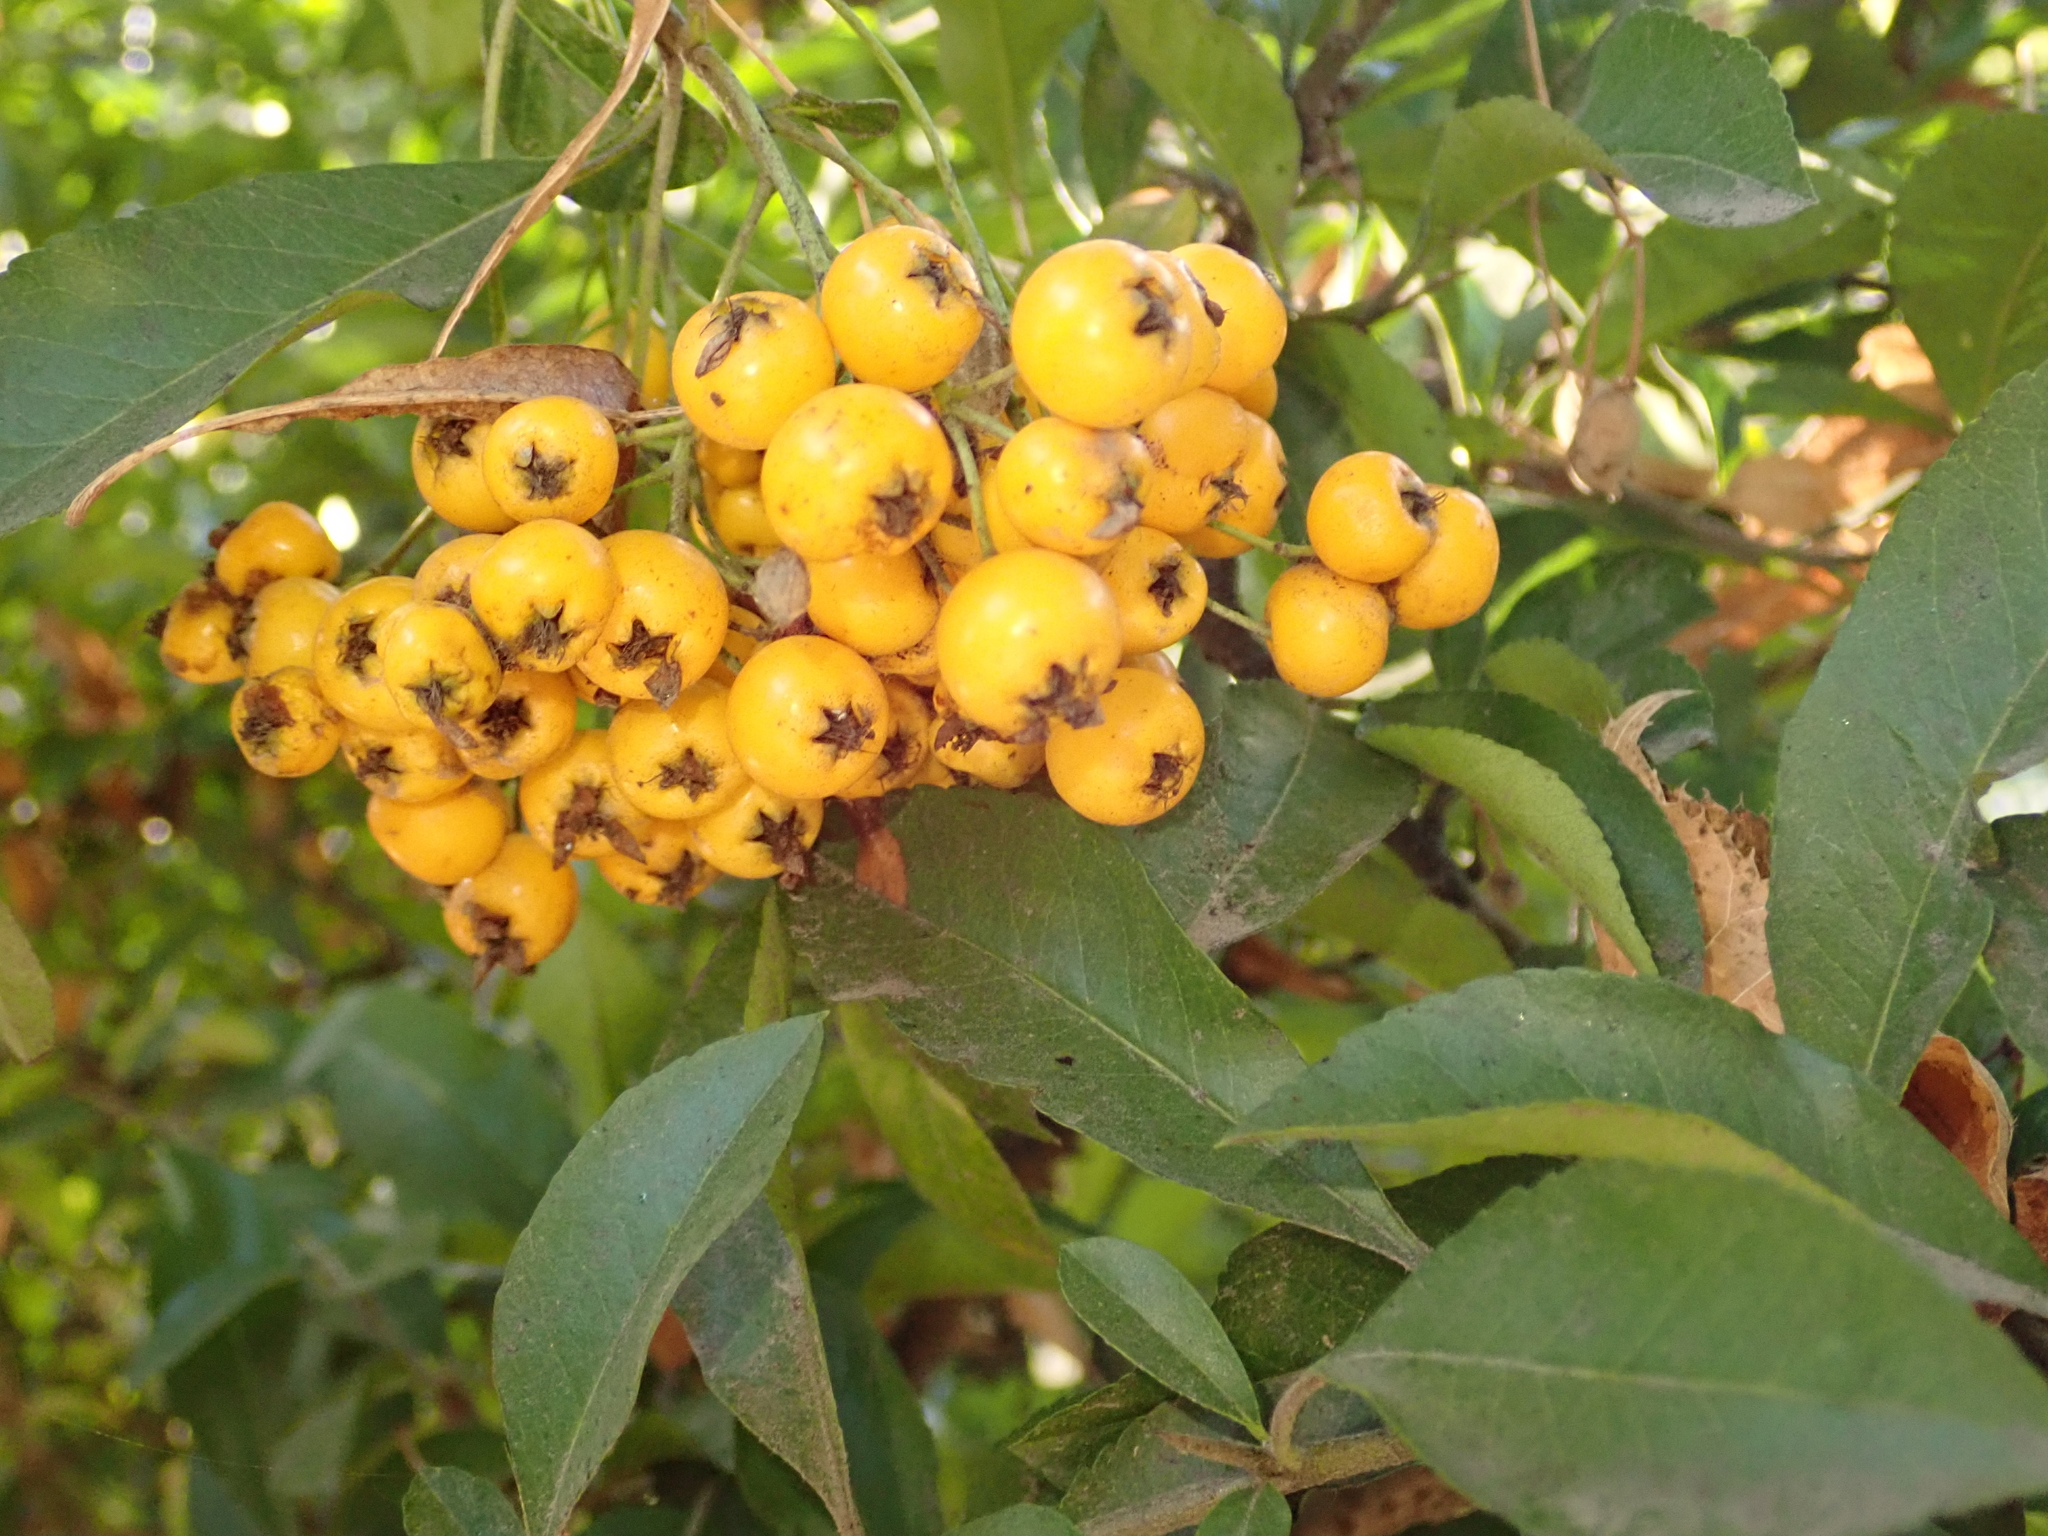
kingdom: Plantae
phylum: Tracheophyta
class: Magnoliopsida
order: Rosales
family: Rosaceae
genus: Pyracantha
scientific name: Pyracantha coccinea
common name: Firethorn
